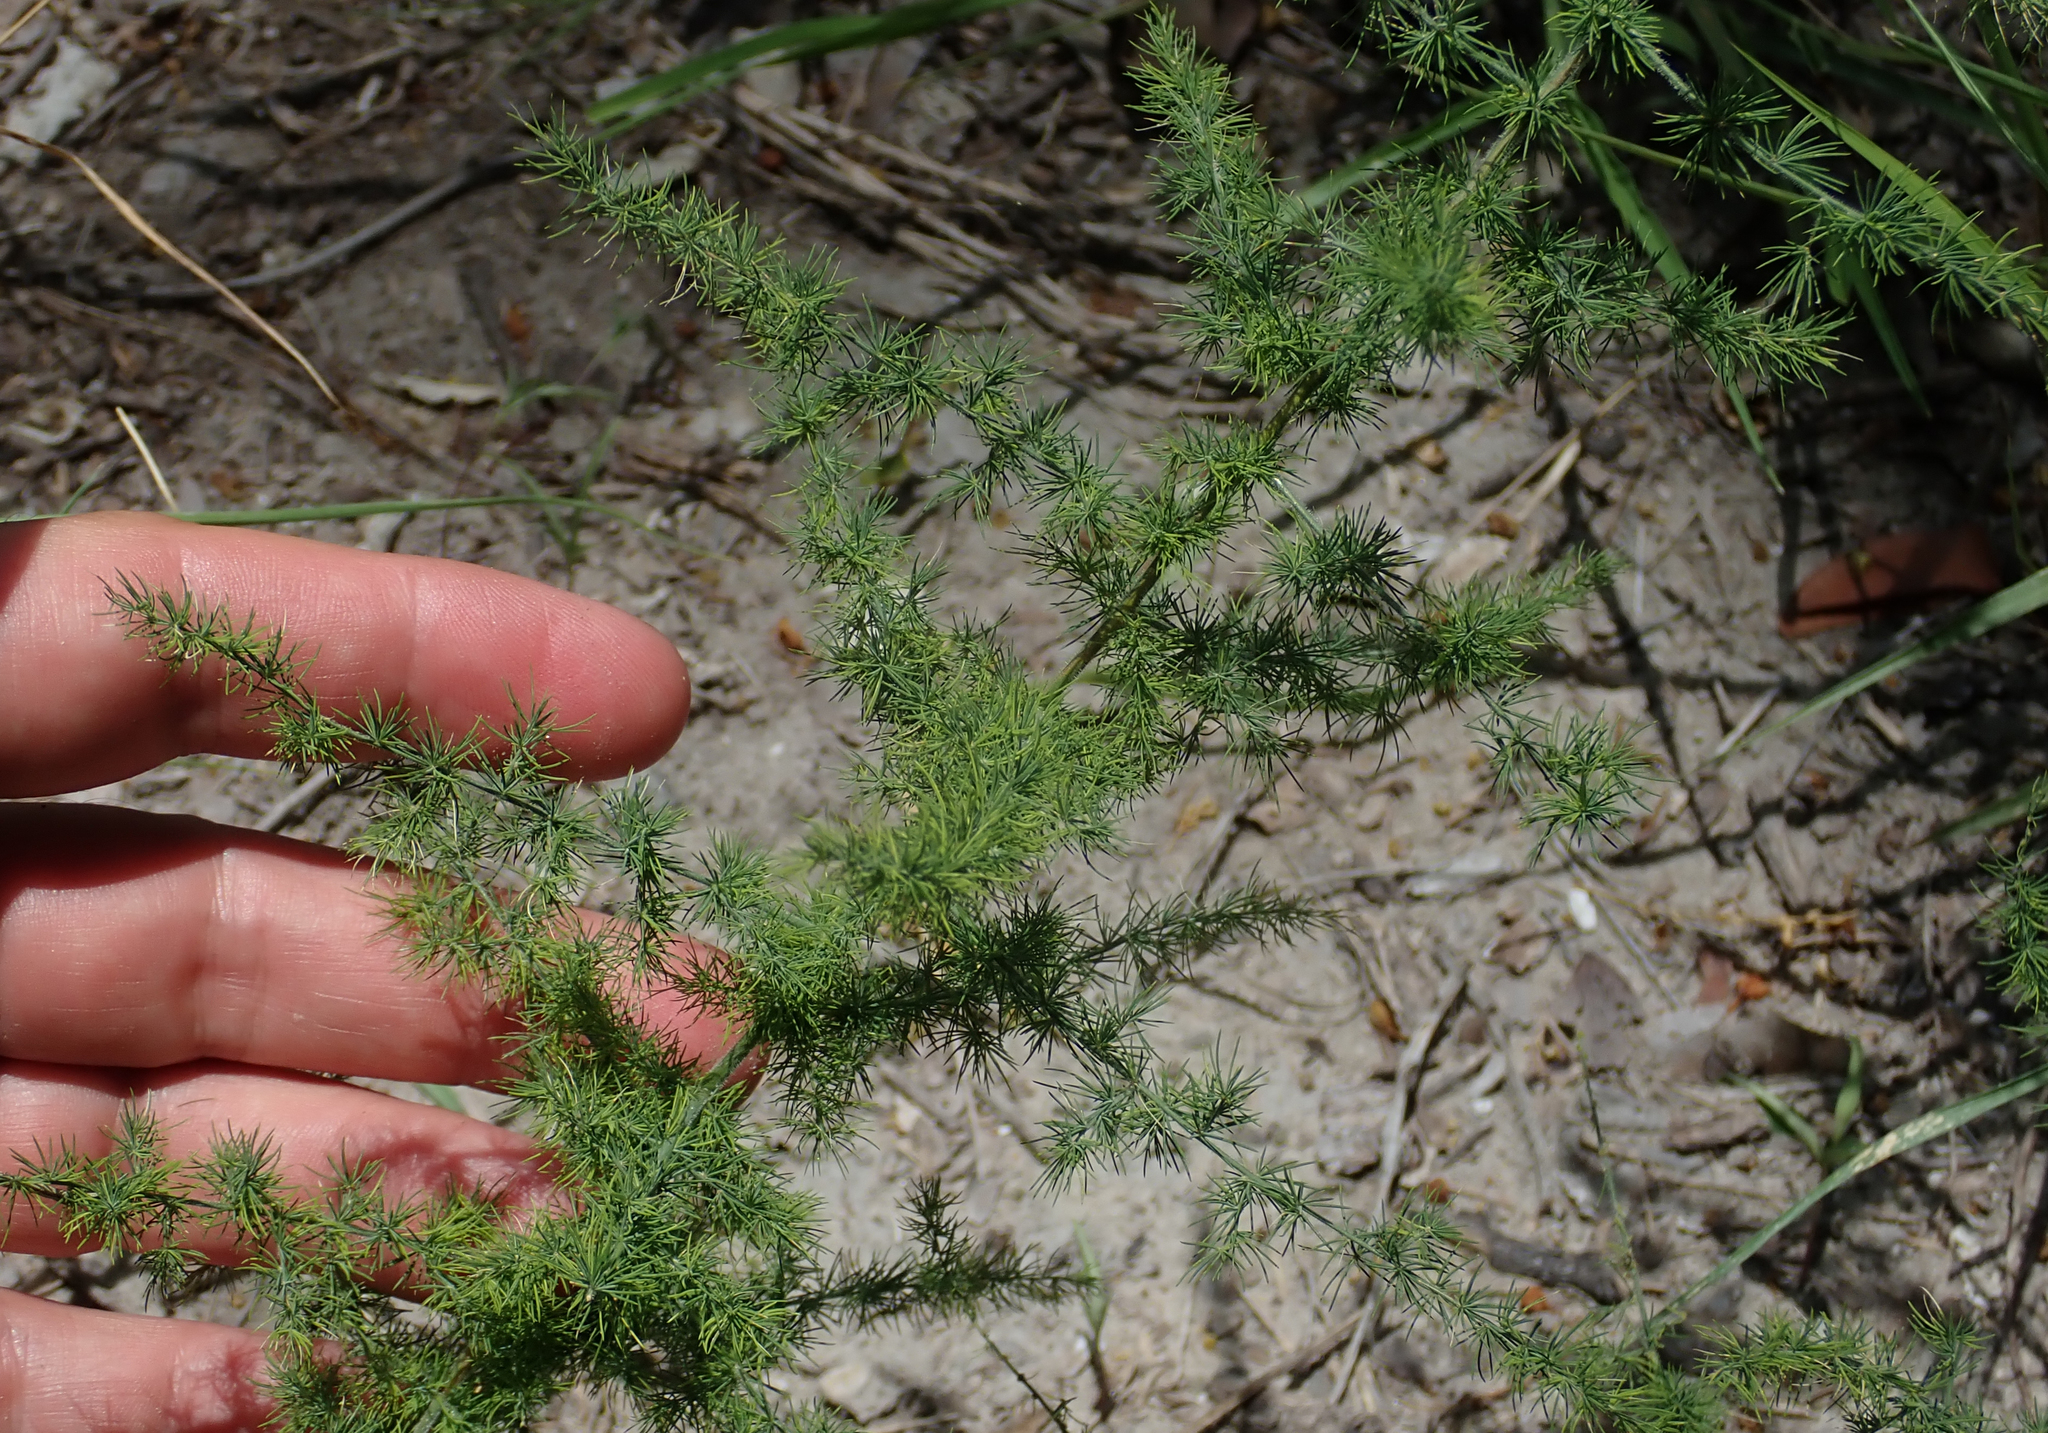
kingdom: Plantae
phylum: Tracheophyta
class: Liliopsida
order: Asparagales
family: Asparagaceae
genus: Asparagus
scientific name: Asparagus africanus
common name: Asparagus-fern
